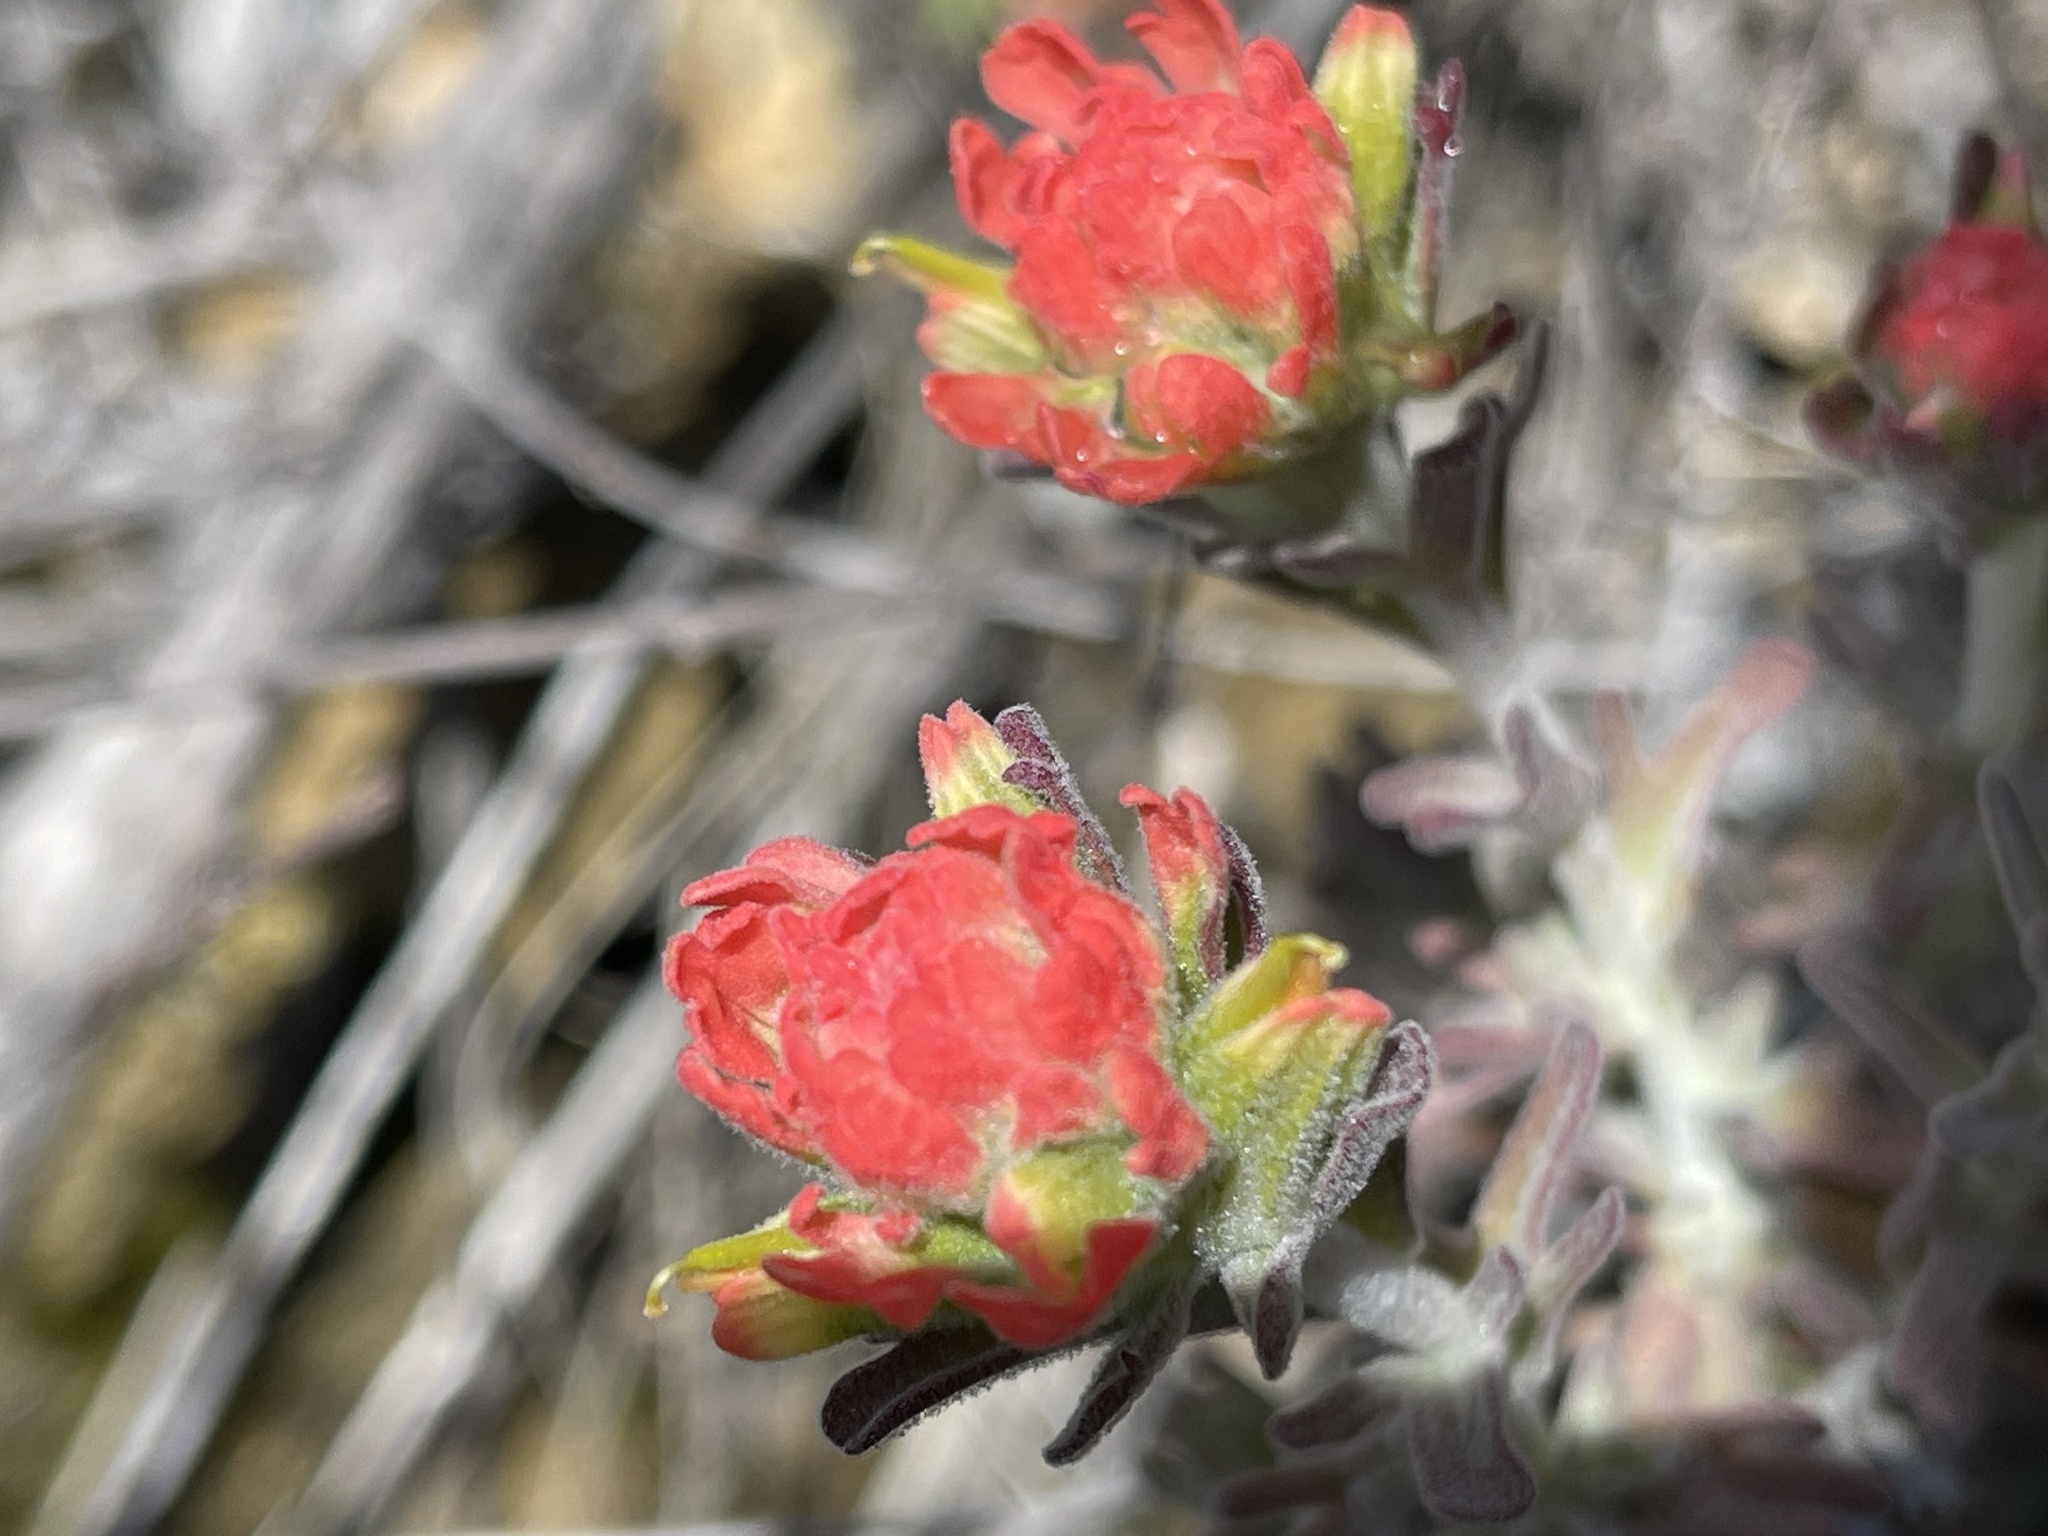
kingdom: Plantae
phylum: Tracheophyta
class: Magnoliopsida
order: Lamiales
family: Orobanchaceae
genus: Castilleja
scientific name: Castilleja foliolosa
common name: Woolly indian paintbrush
